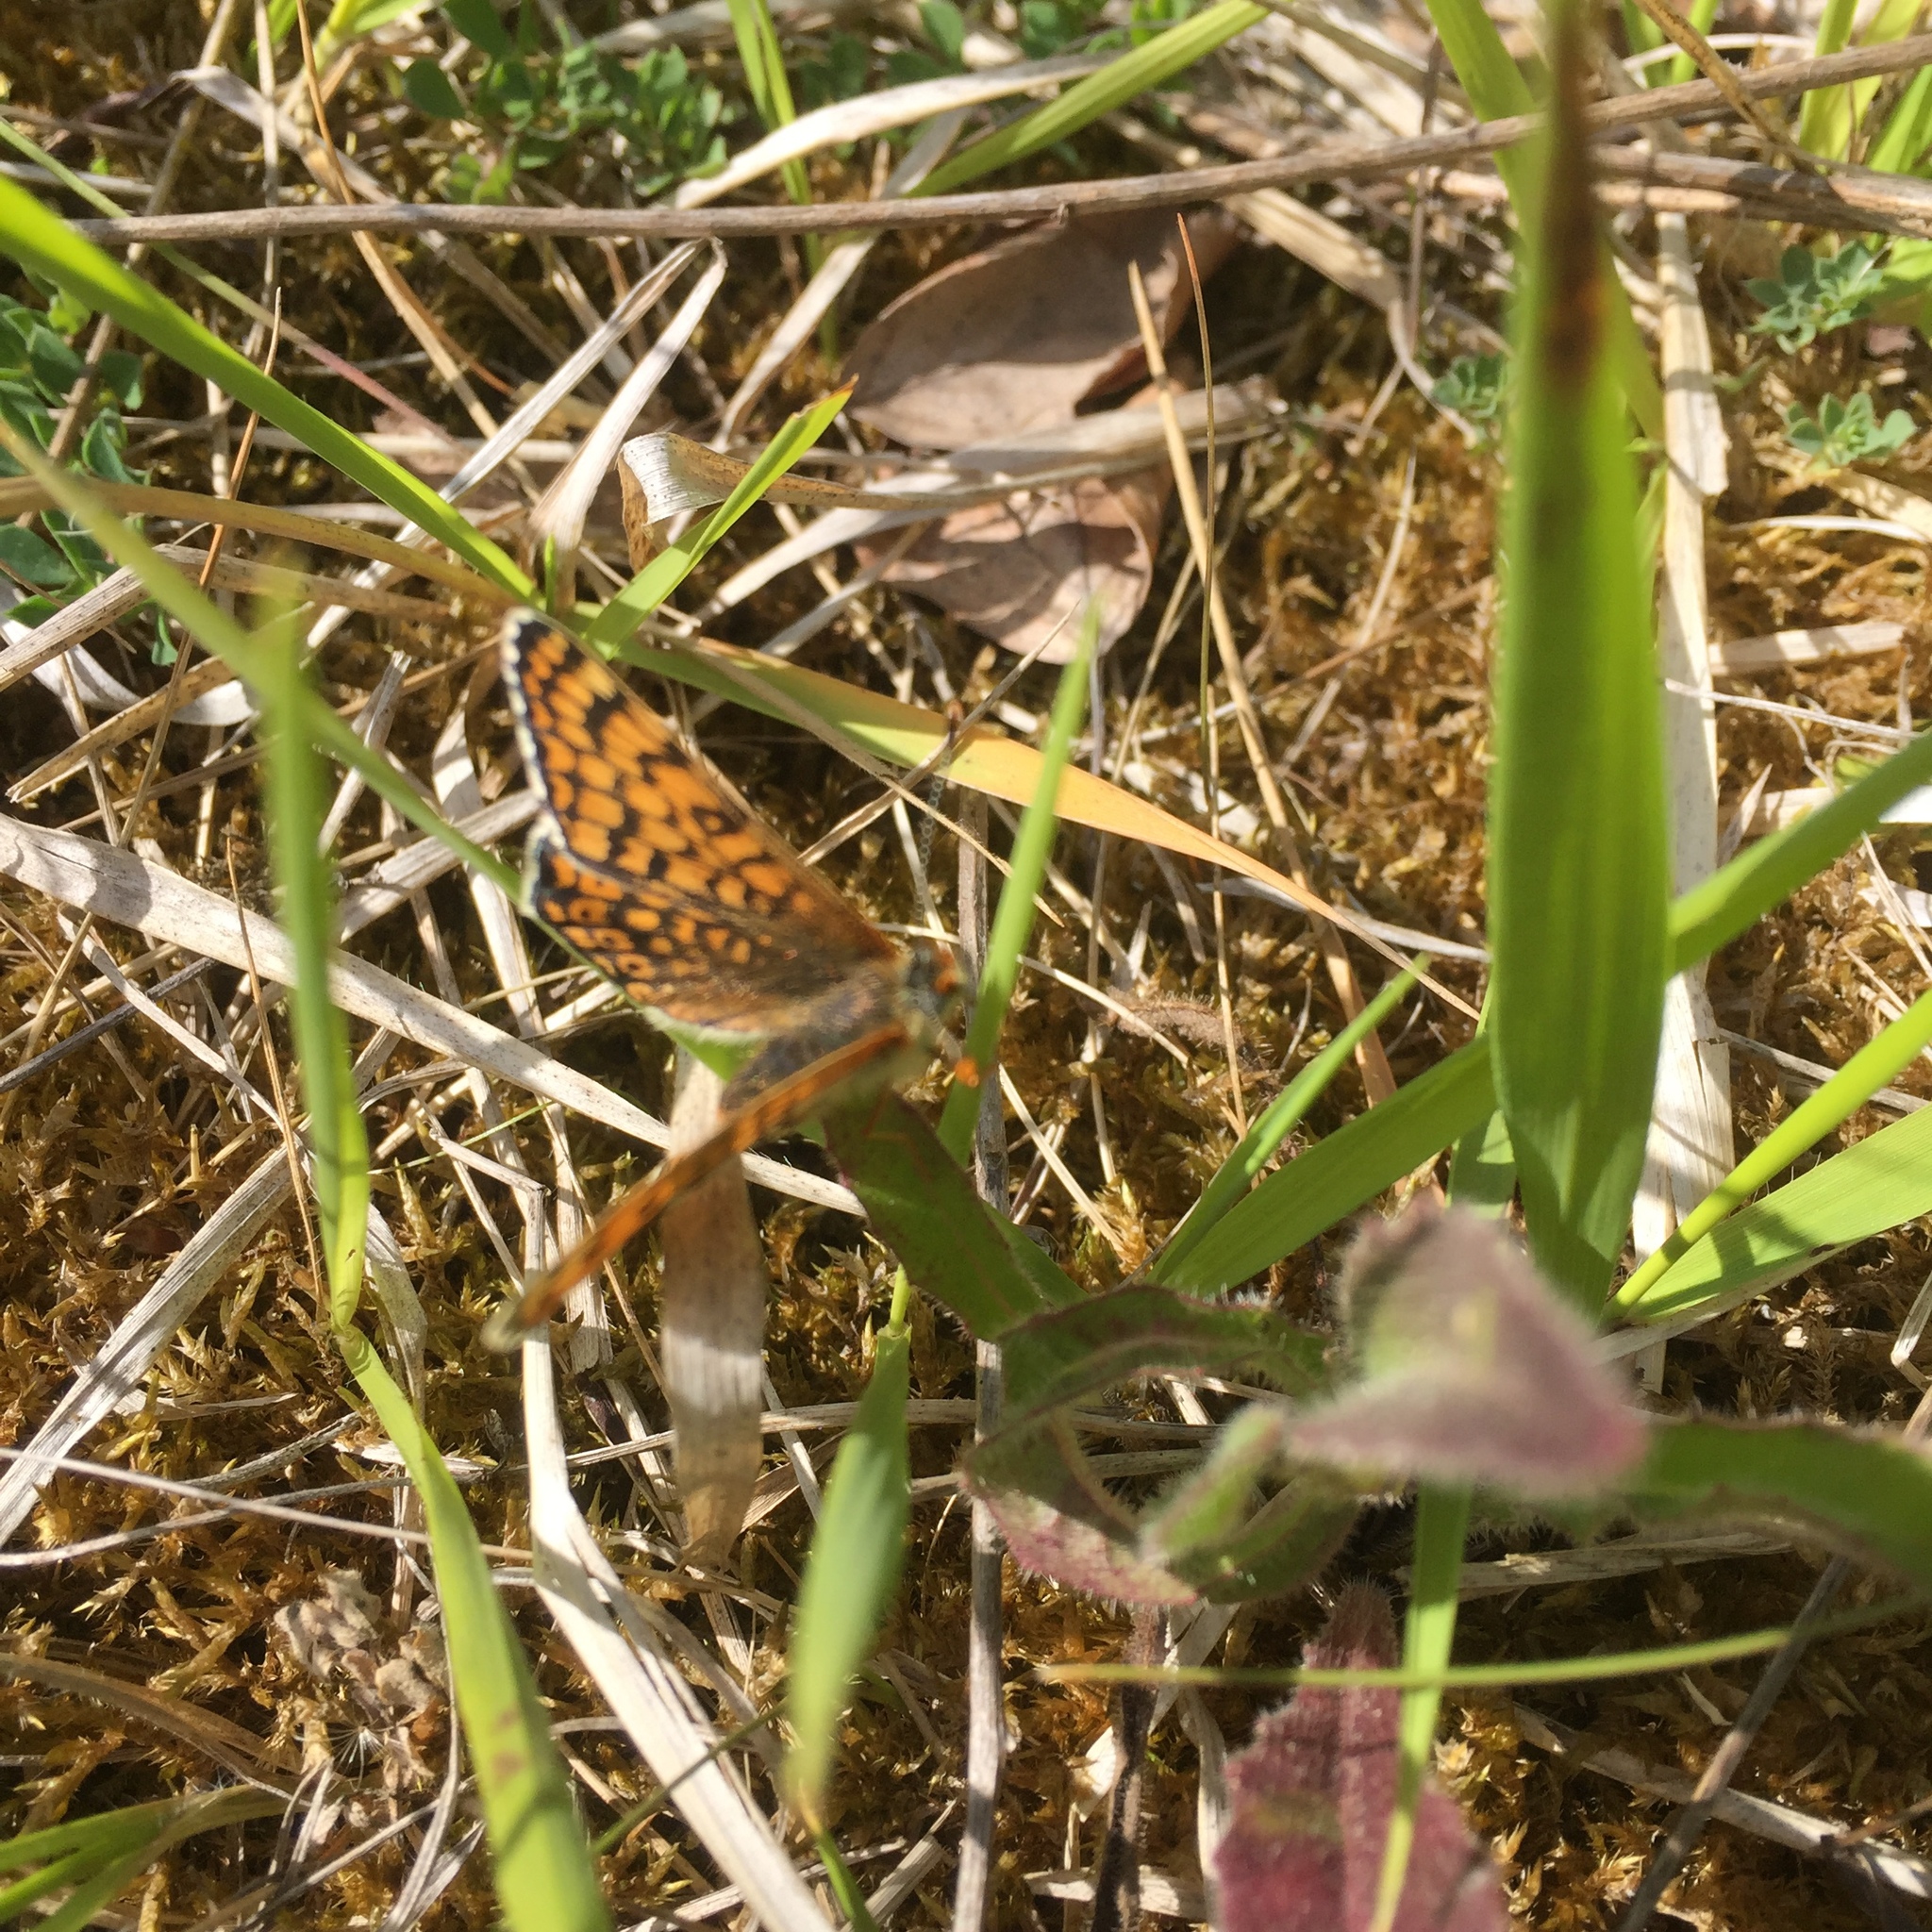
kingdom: Animalia
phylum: Arthropoda
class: Insecta
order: Lepidoptera
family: Nymphalidae
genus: Melitaea
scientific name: Melitaea cinxia
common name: Glanville fritillary
